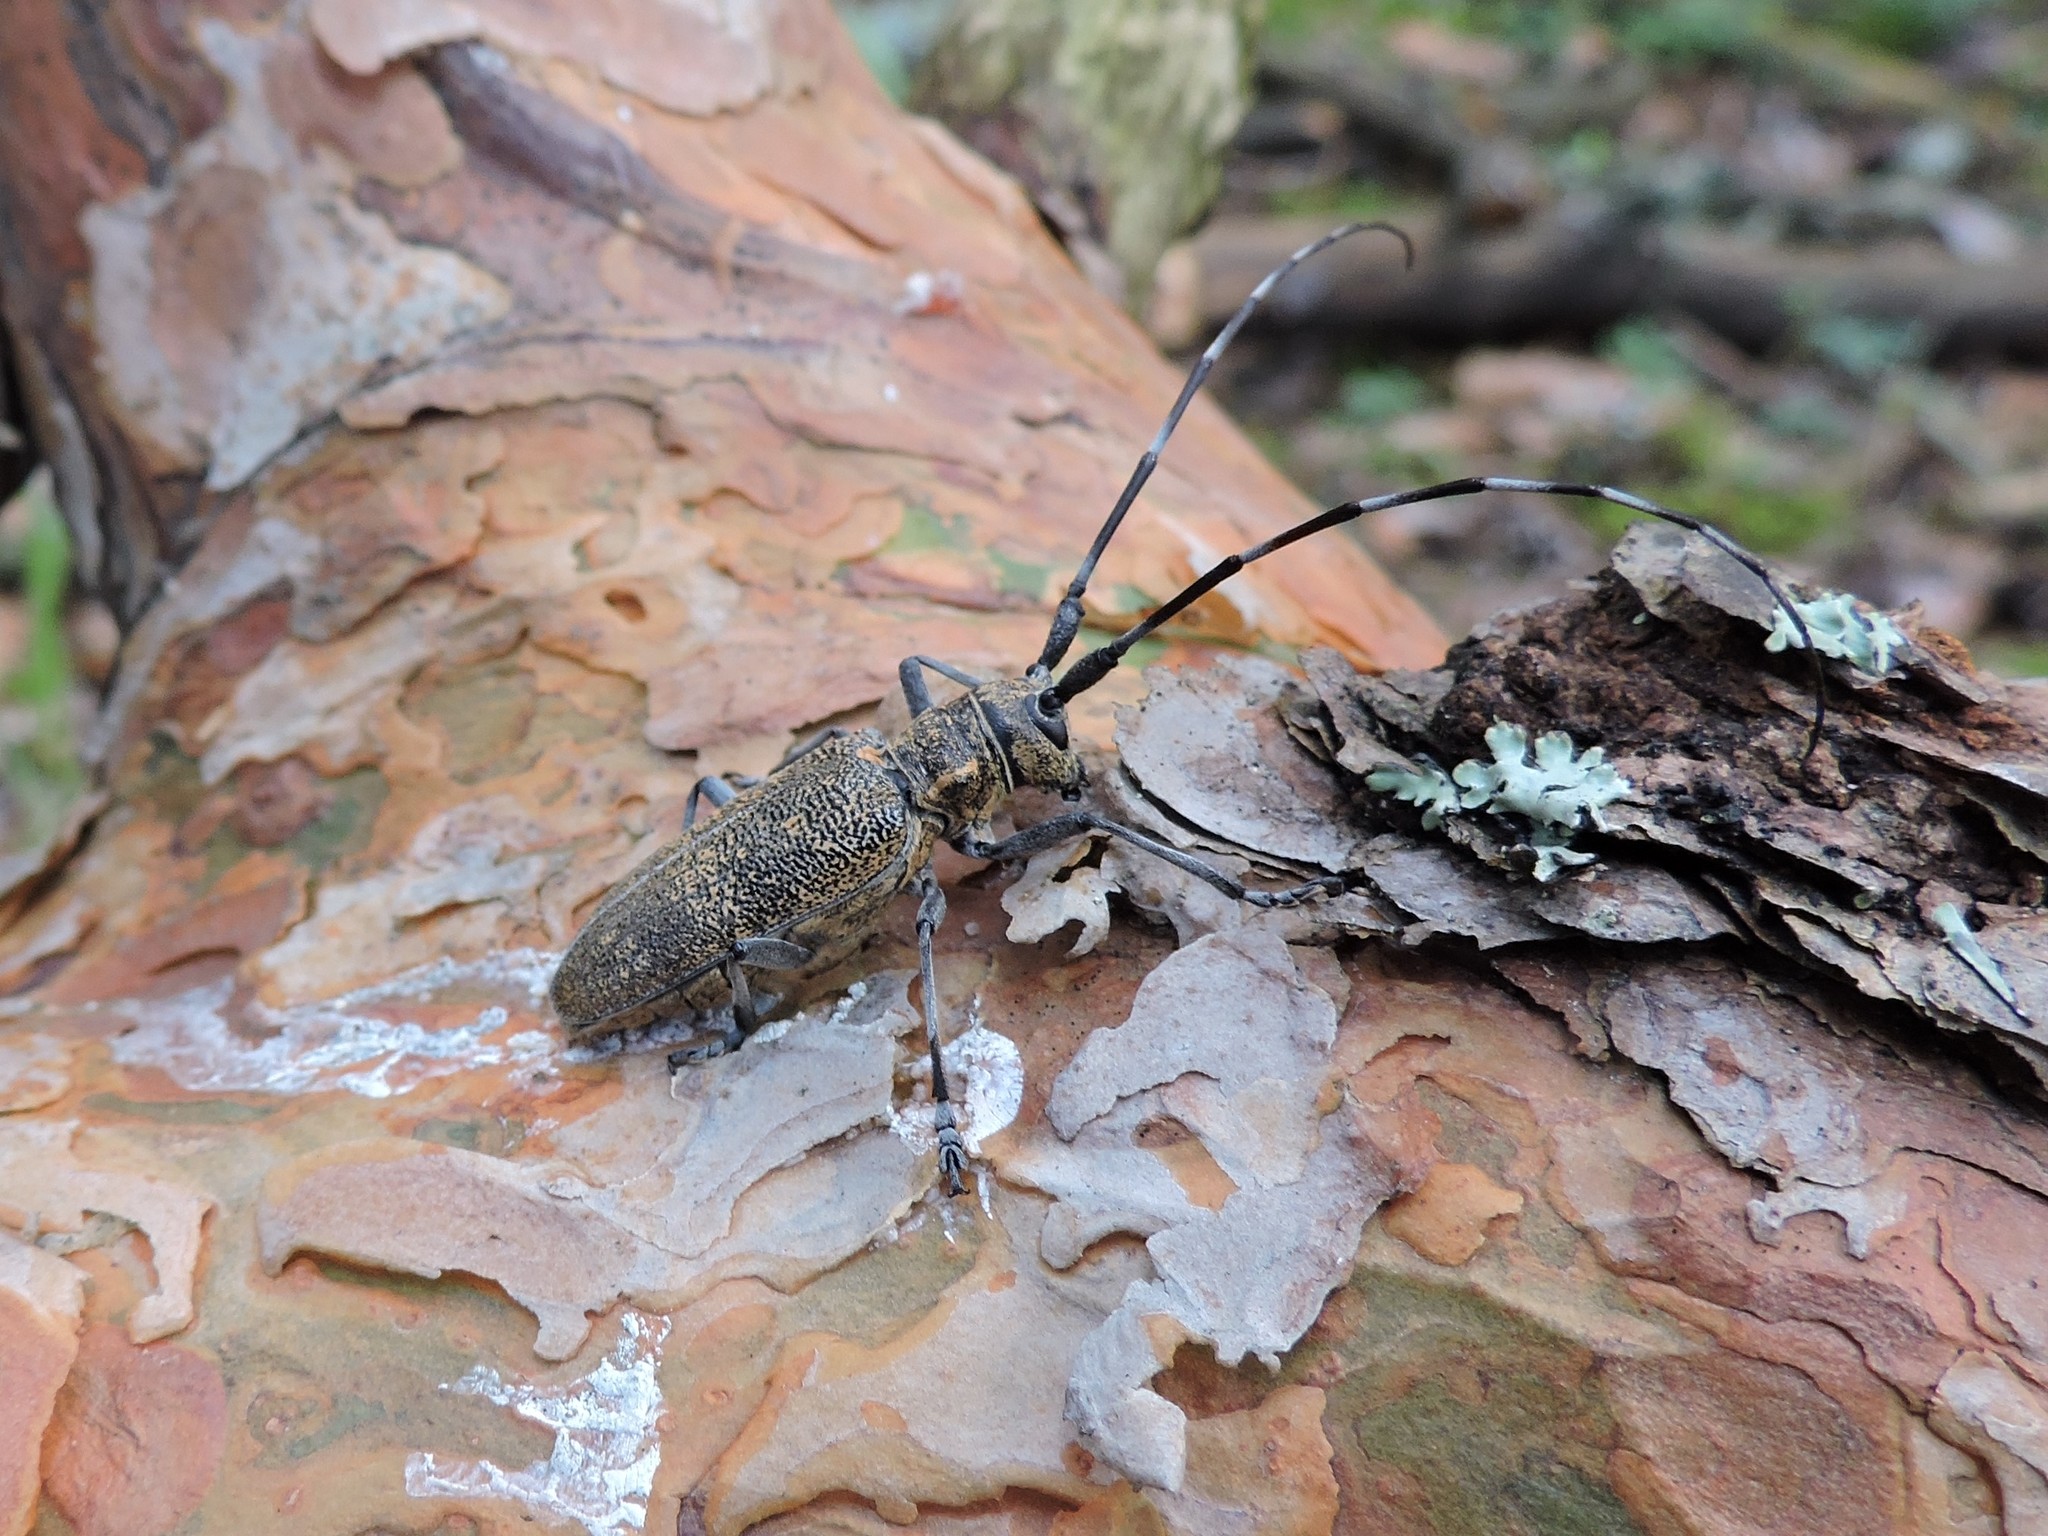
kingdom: Animalia
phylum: Arthropoda
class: Insecta
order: Coleoptera
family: Cerambycidae
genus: Monochamus
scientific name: Monochamus galloprovincialis
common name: Pine sawyer
